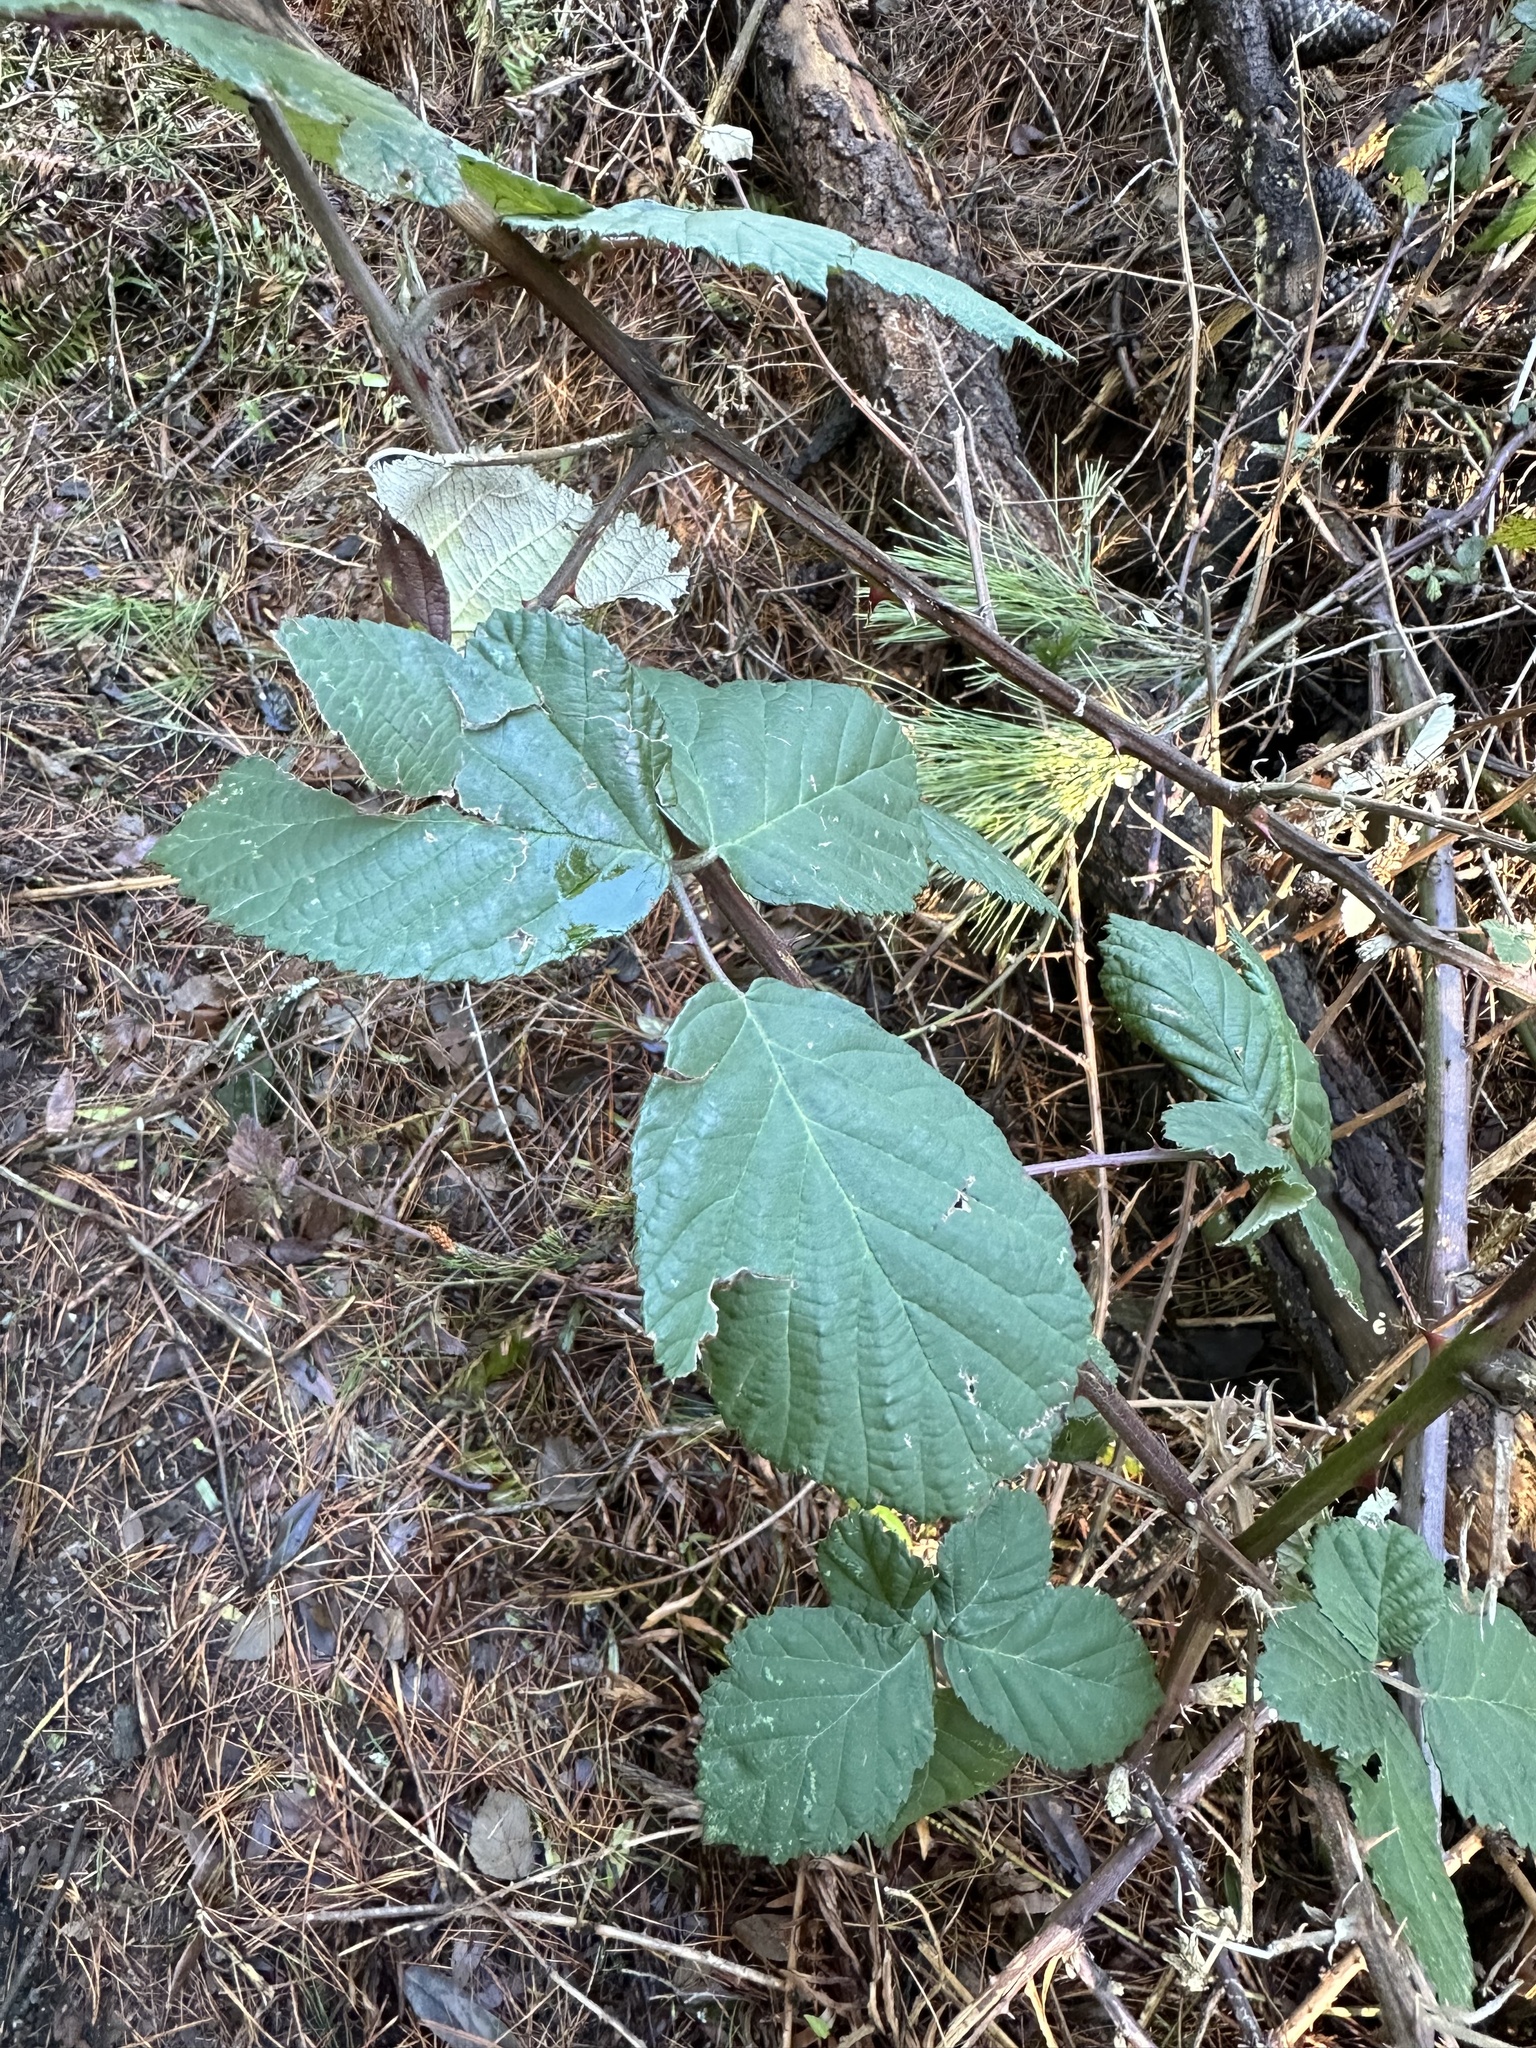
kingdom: Plantae
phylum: Tracheophyta
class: Magnoliopsida
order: Rosales
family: Rosaceae
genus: Rubus
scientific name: Rubus armeniacus
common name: Himalayan blackberry
